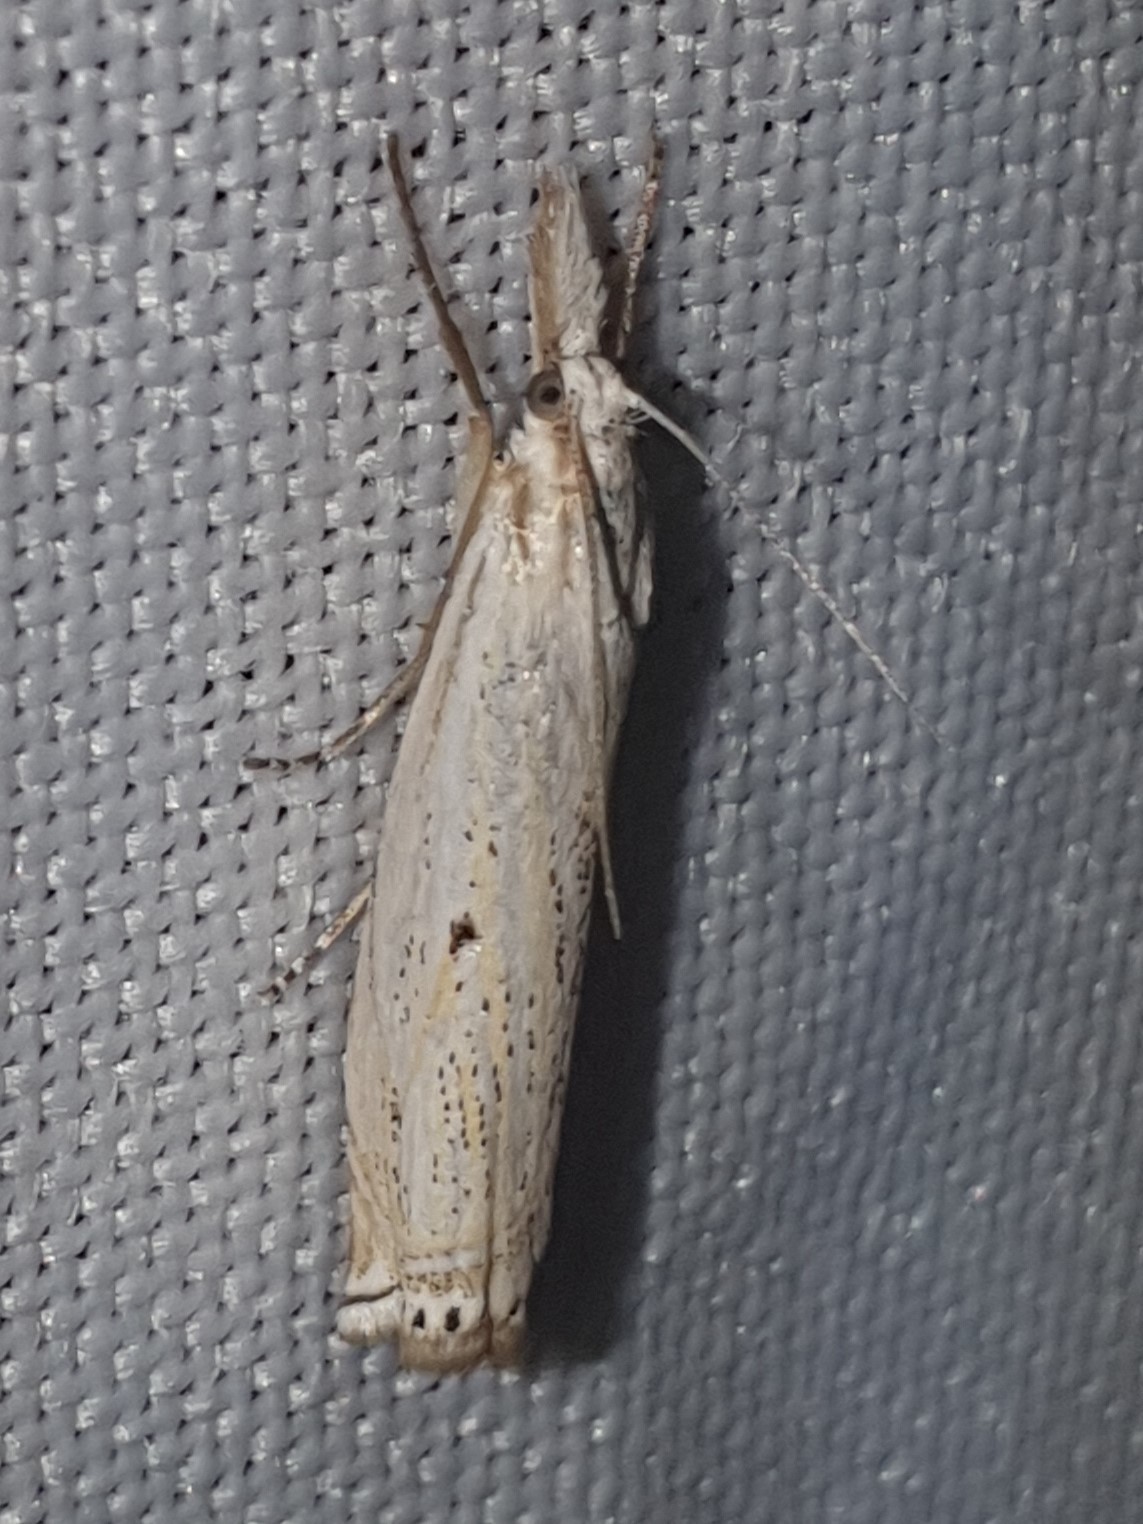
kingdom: Animalia
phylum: Arthropoda
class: Insecta
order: Lepidoptera
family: Crambidae
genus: Crambus
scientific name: Crambus nemorella
